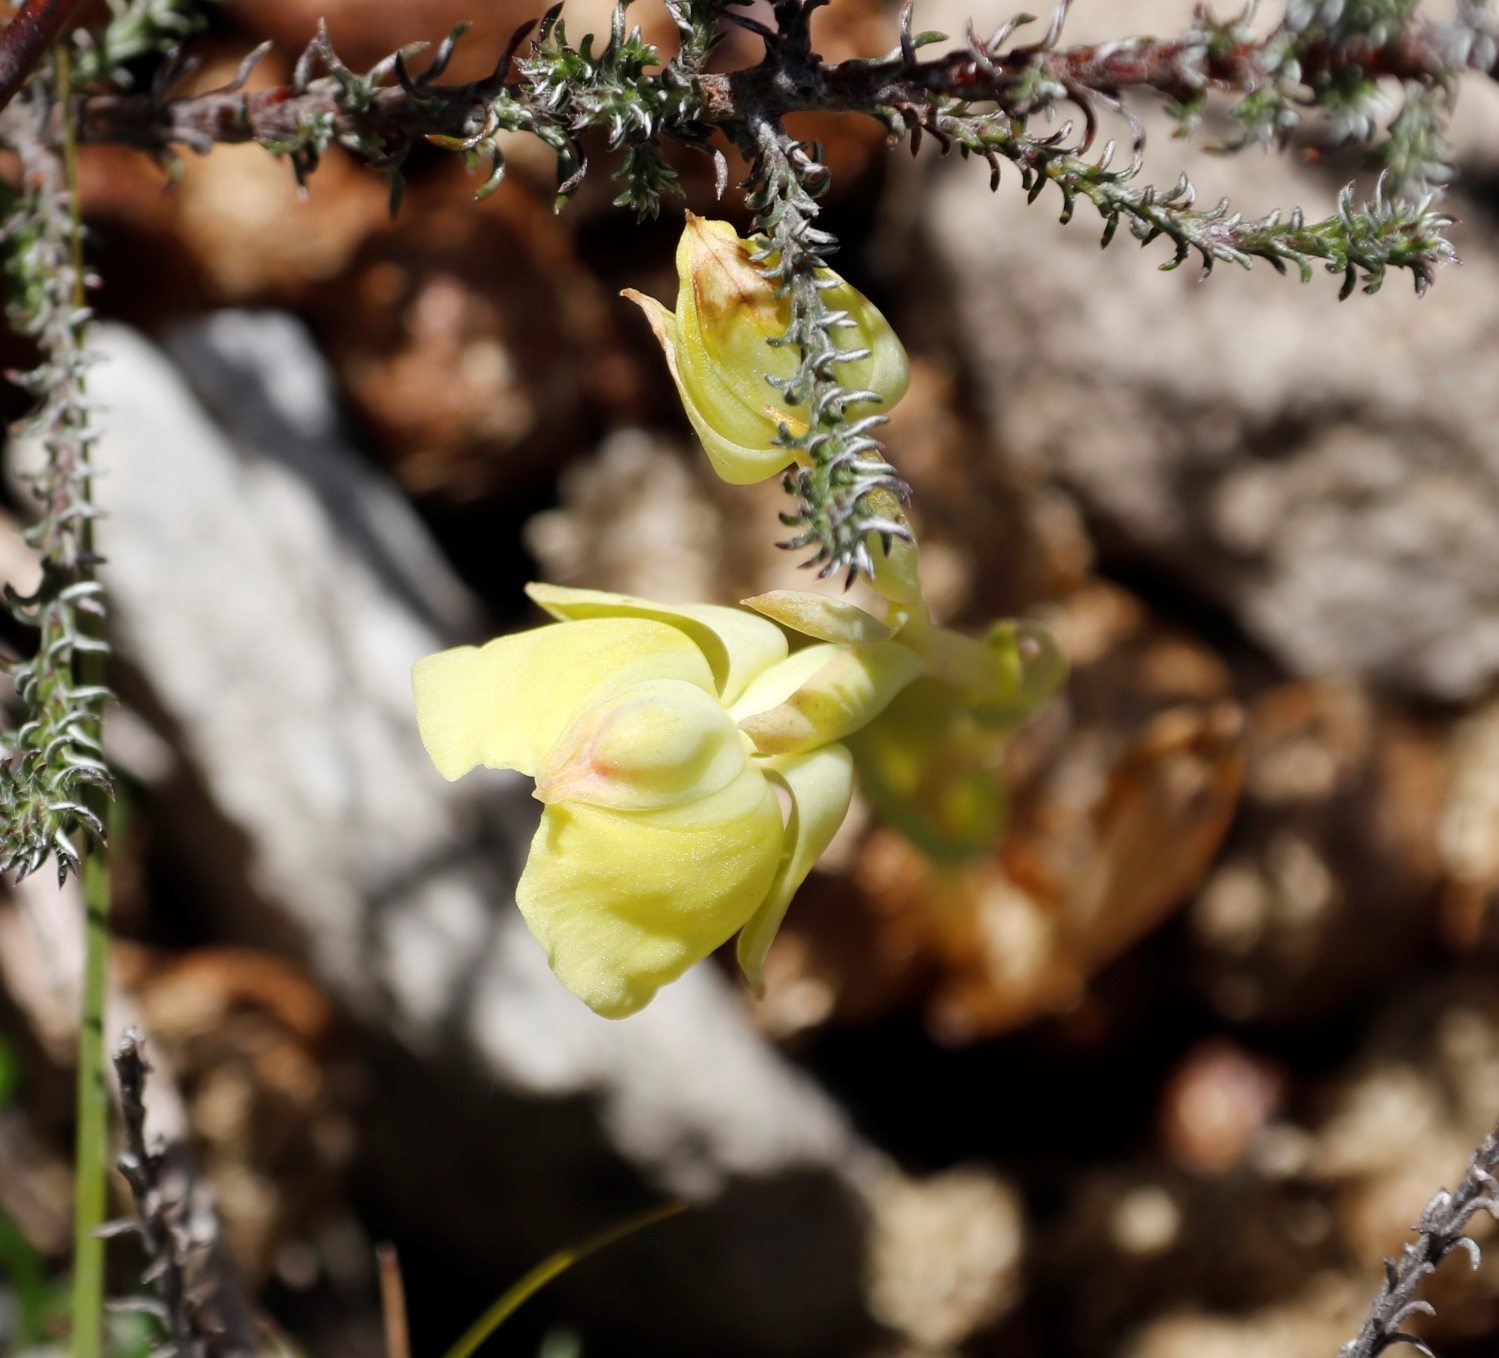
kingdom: Plantae
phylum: Tracheophyta
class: Liliopsida
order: Asparagales
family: Orchidaceae
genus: Pterygodium
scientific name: Pterygodium catholicum
